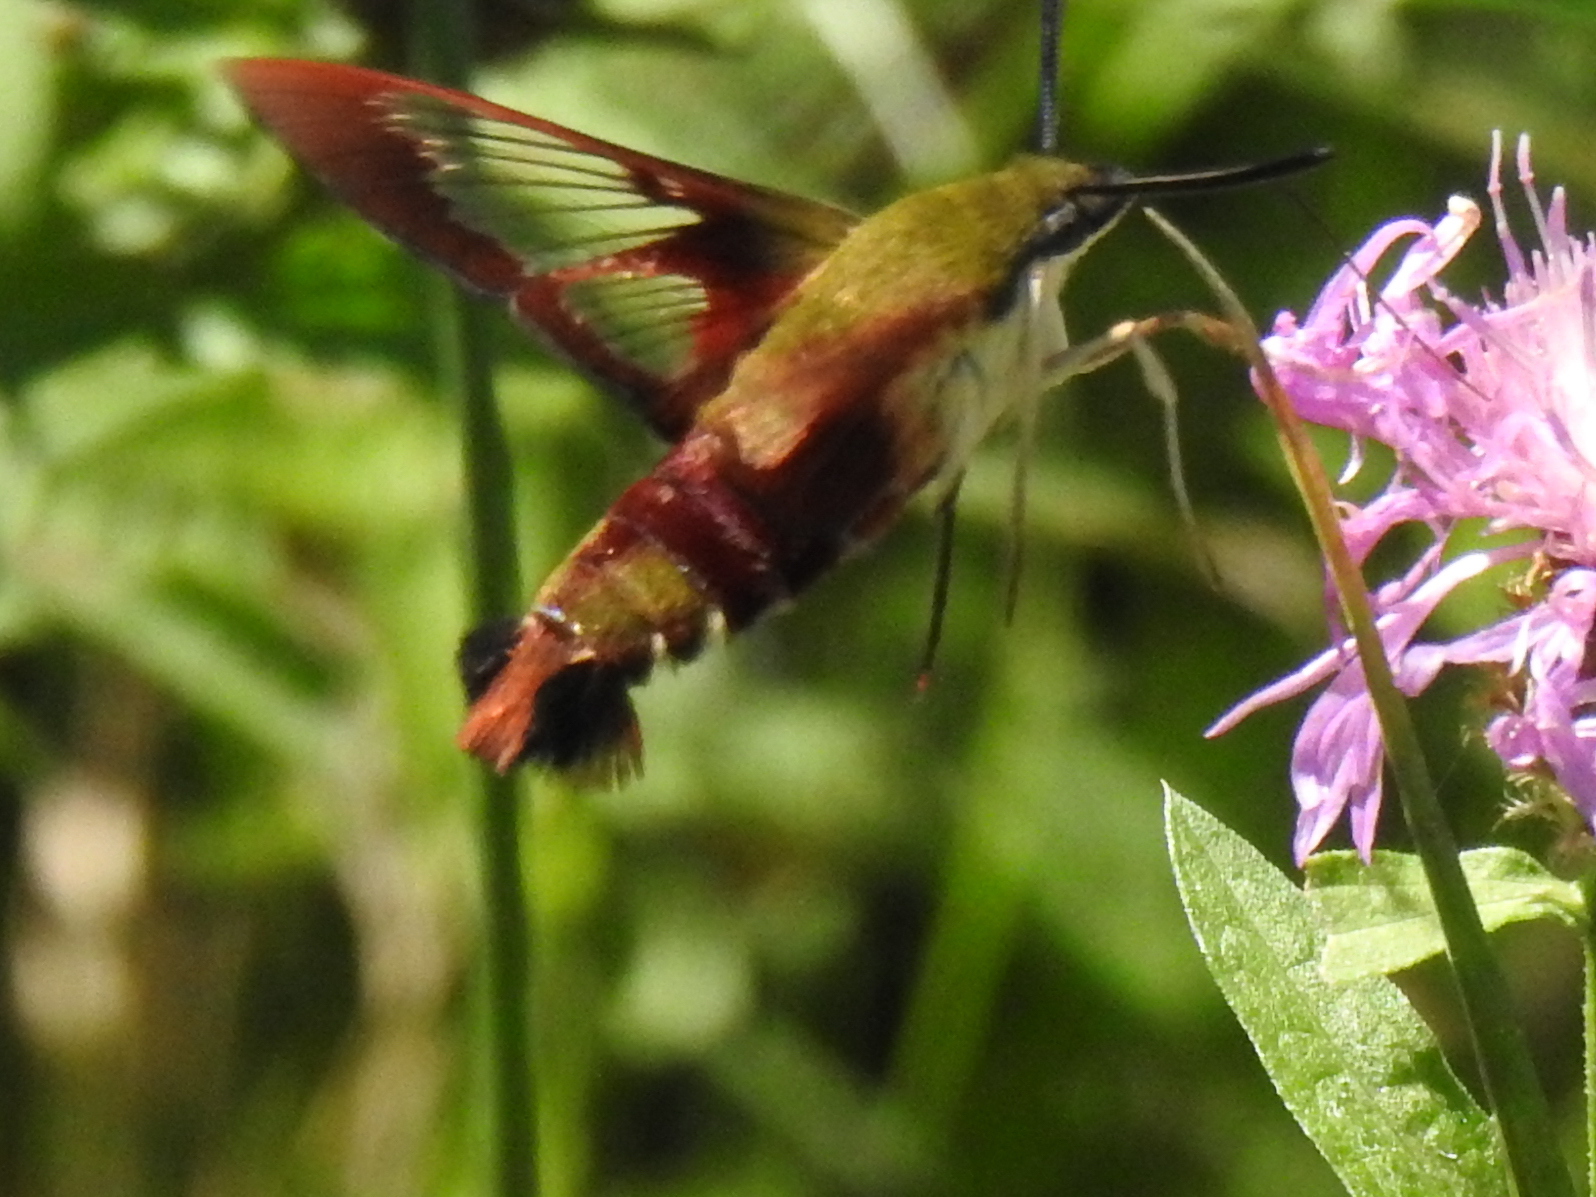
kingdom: Animalia
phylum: Arthropoda
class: Insecta
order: Lepidoptera
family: Sphingidae
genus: Hemaris
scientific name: Hemaris thysbe
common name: Common clear-wing
